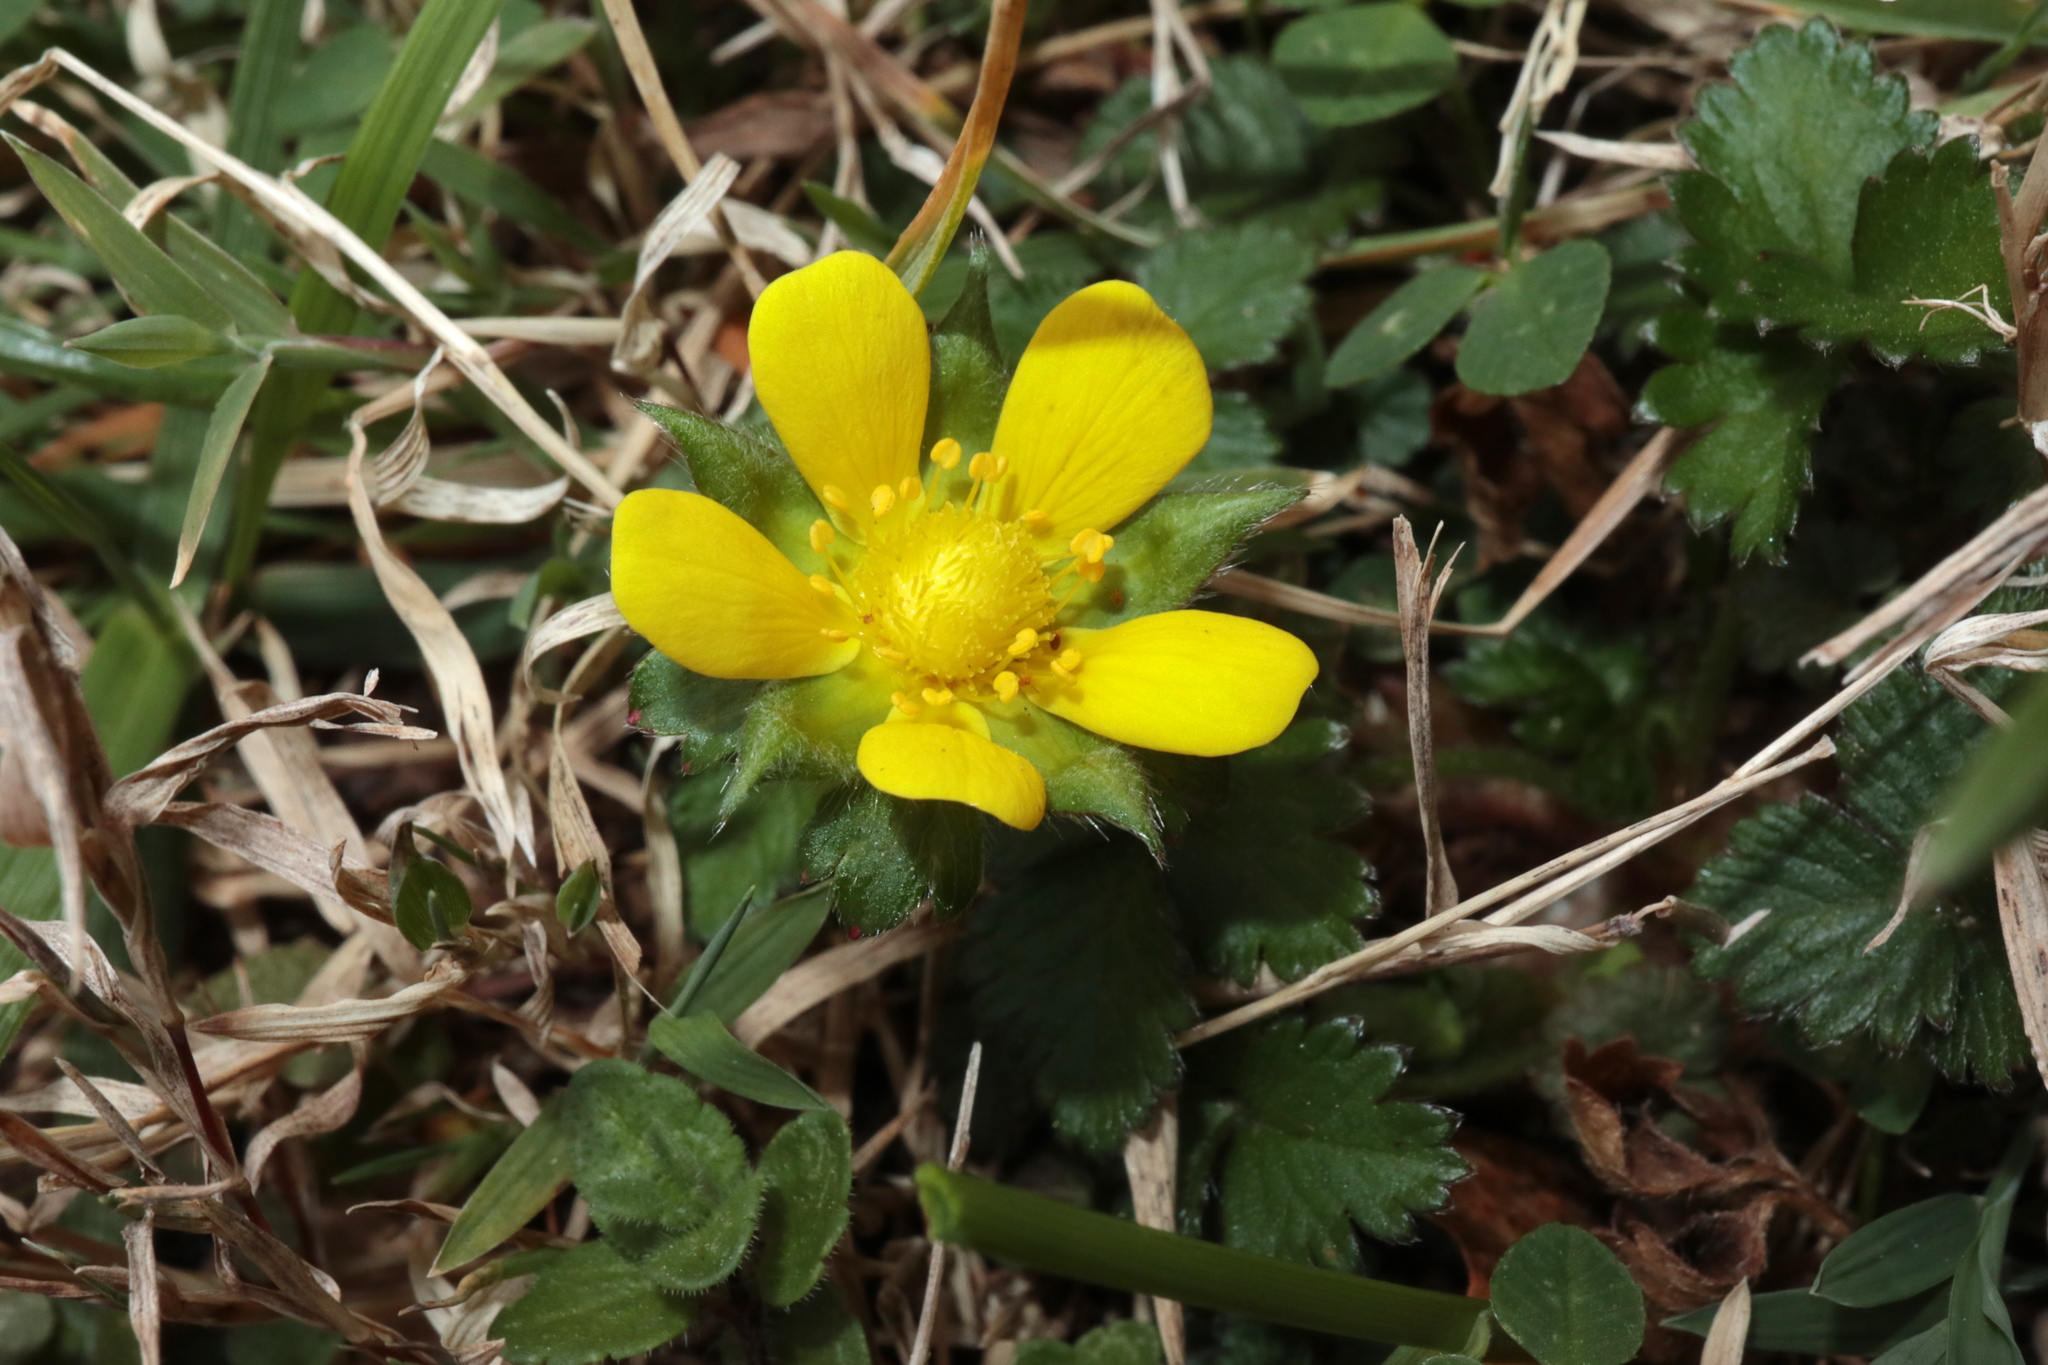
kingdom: Plantae
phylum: Tracheophyta
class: Magnoliopsida
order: Rosales
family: Rosaceae
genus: Potentilla
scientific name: Potentilla indica
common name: Yellow-flowered strawberry
